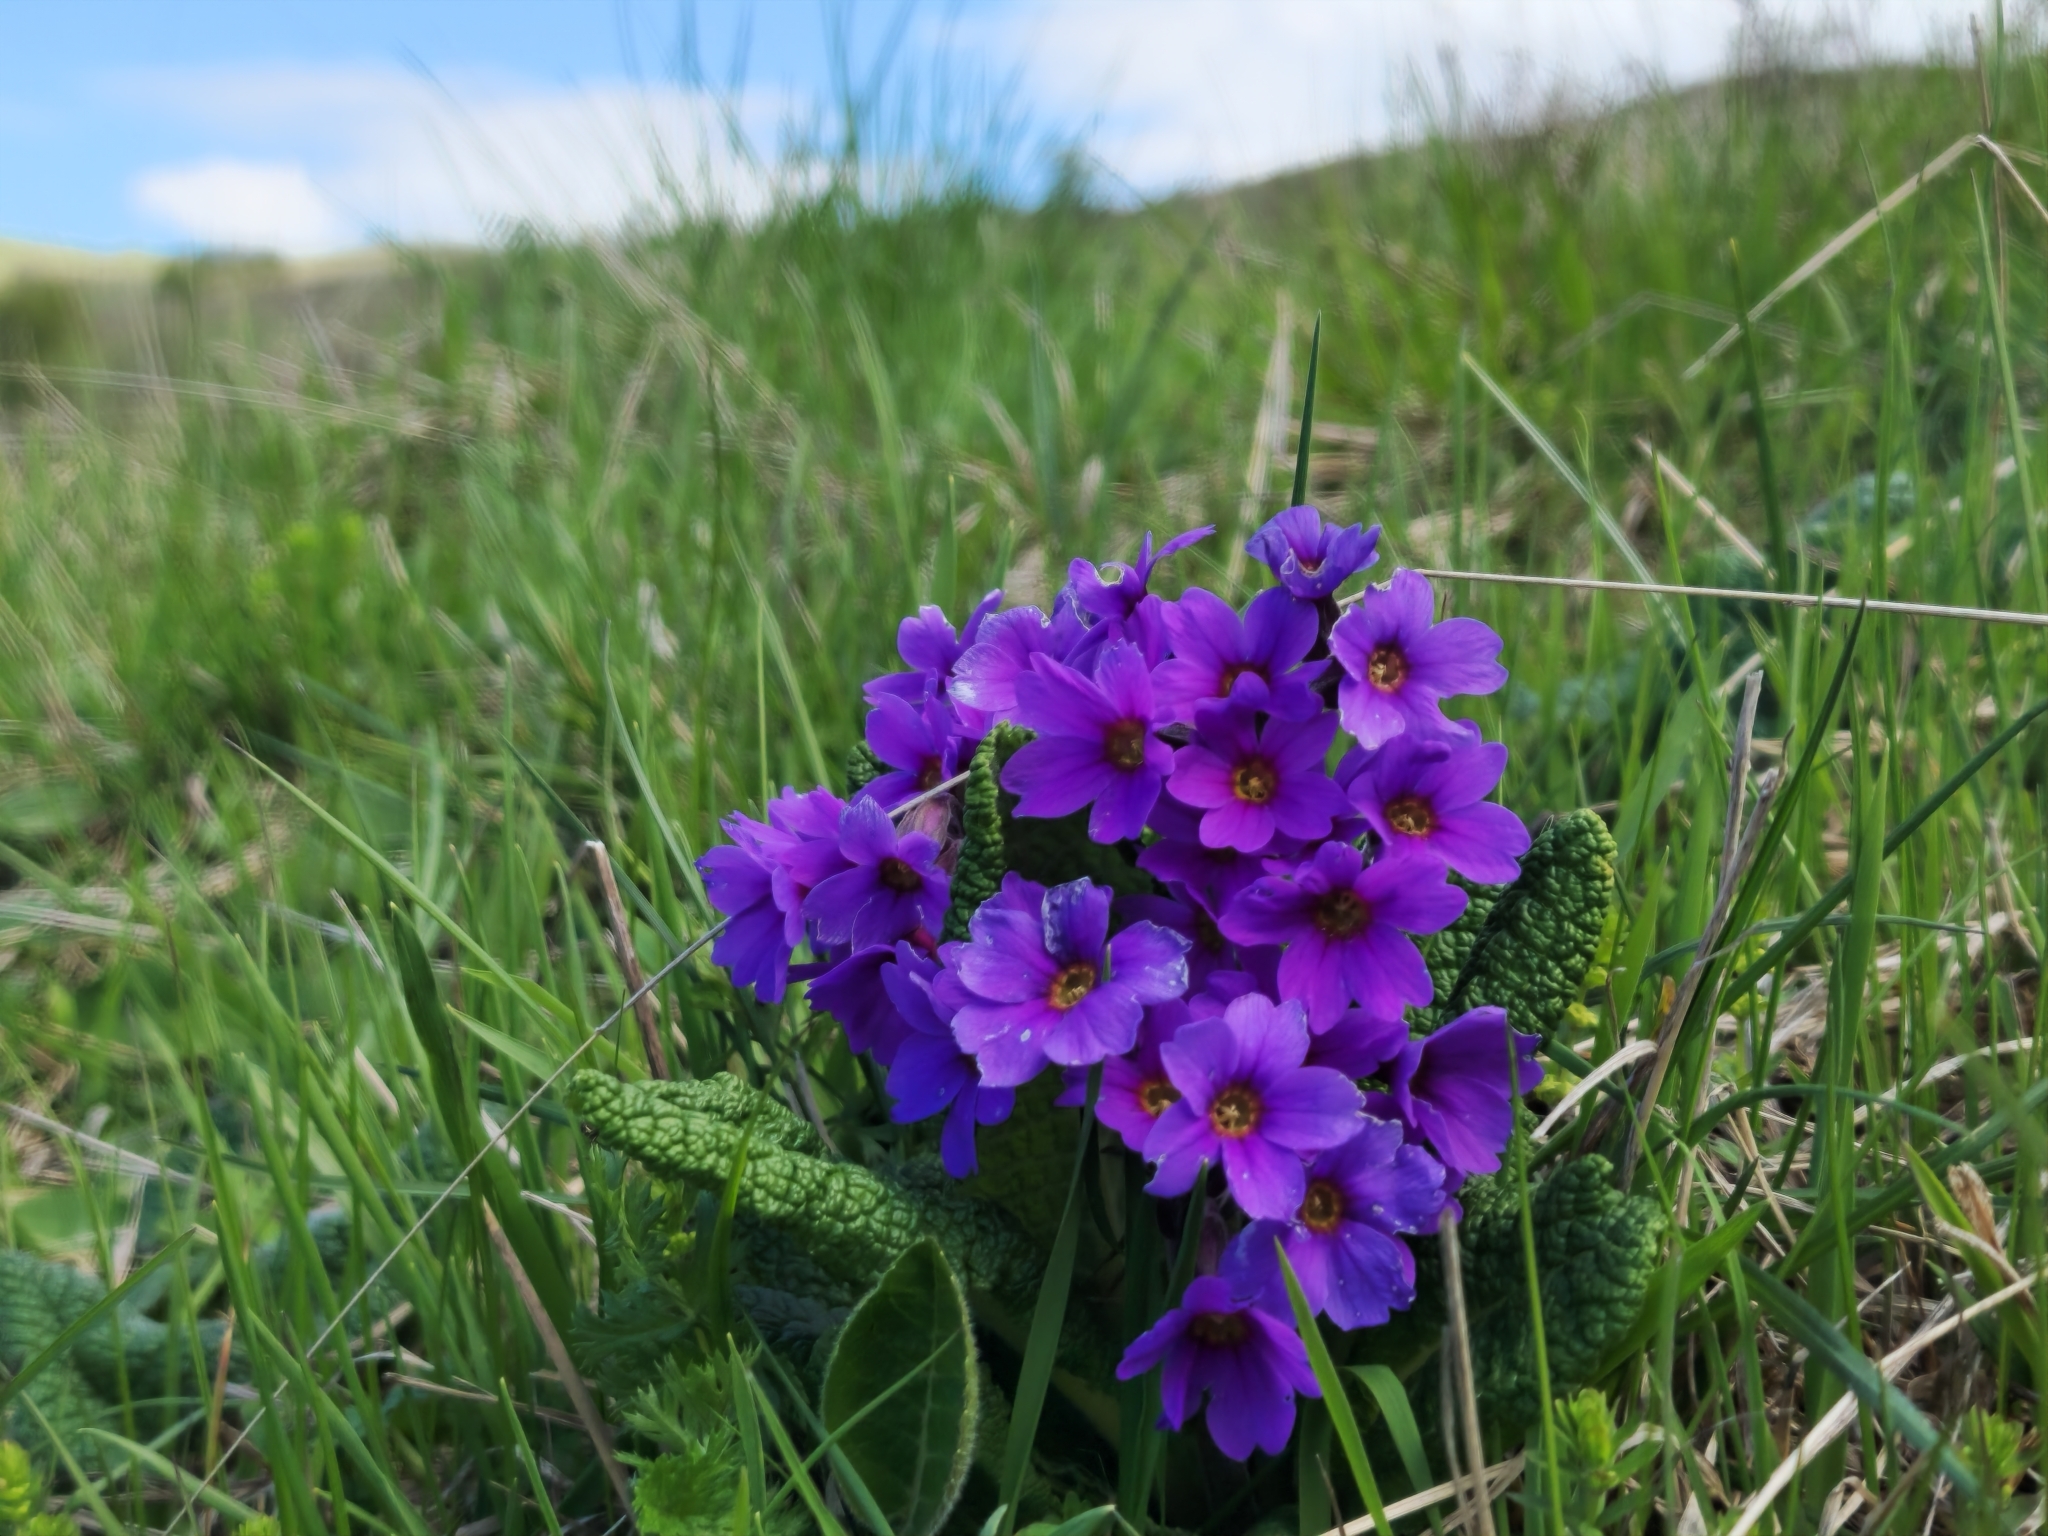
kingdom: Plantae
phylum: Tracheophyta
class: Magnoliopsida
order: Ericales
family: Primulaceae
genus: Primula
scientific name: Primula
